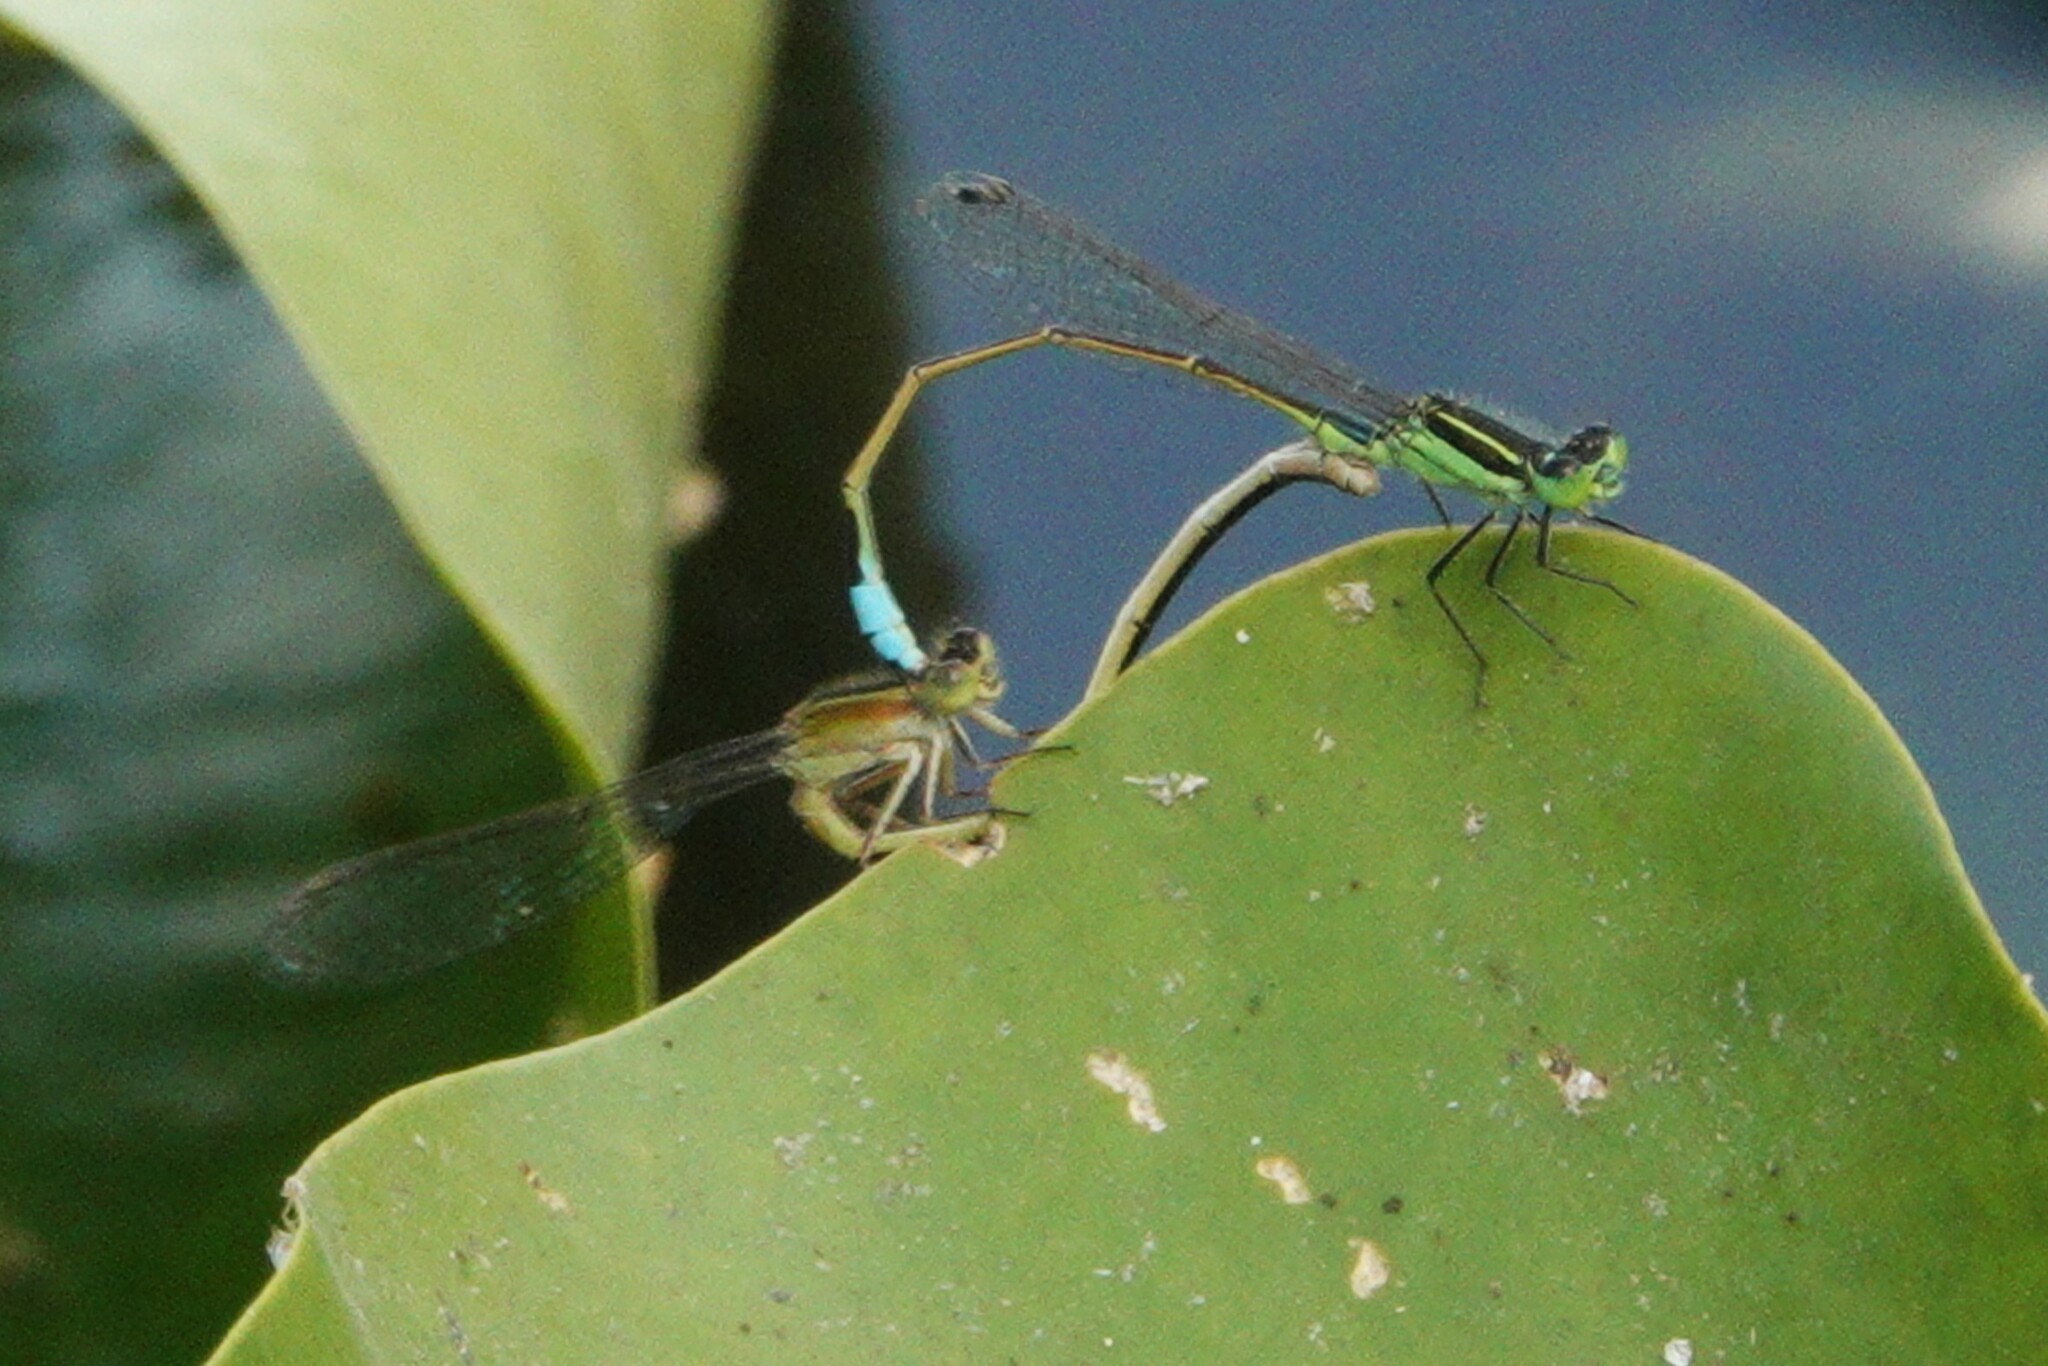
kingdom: Animalia
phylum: Arthropoda
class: Insecta
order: Odonata
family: Coenagrionidae
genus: Ischnura
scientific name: Ischnura ramburii
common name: Rambur's forktail
